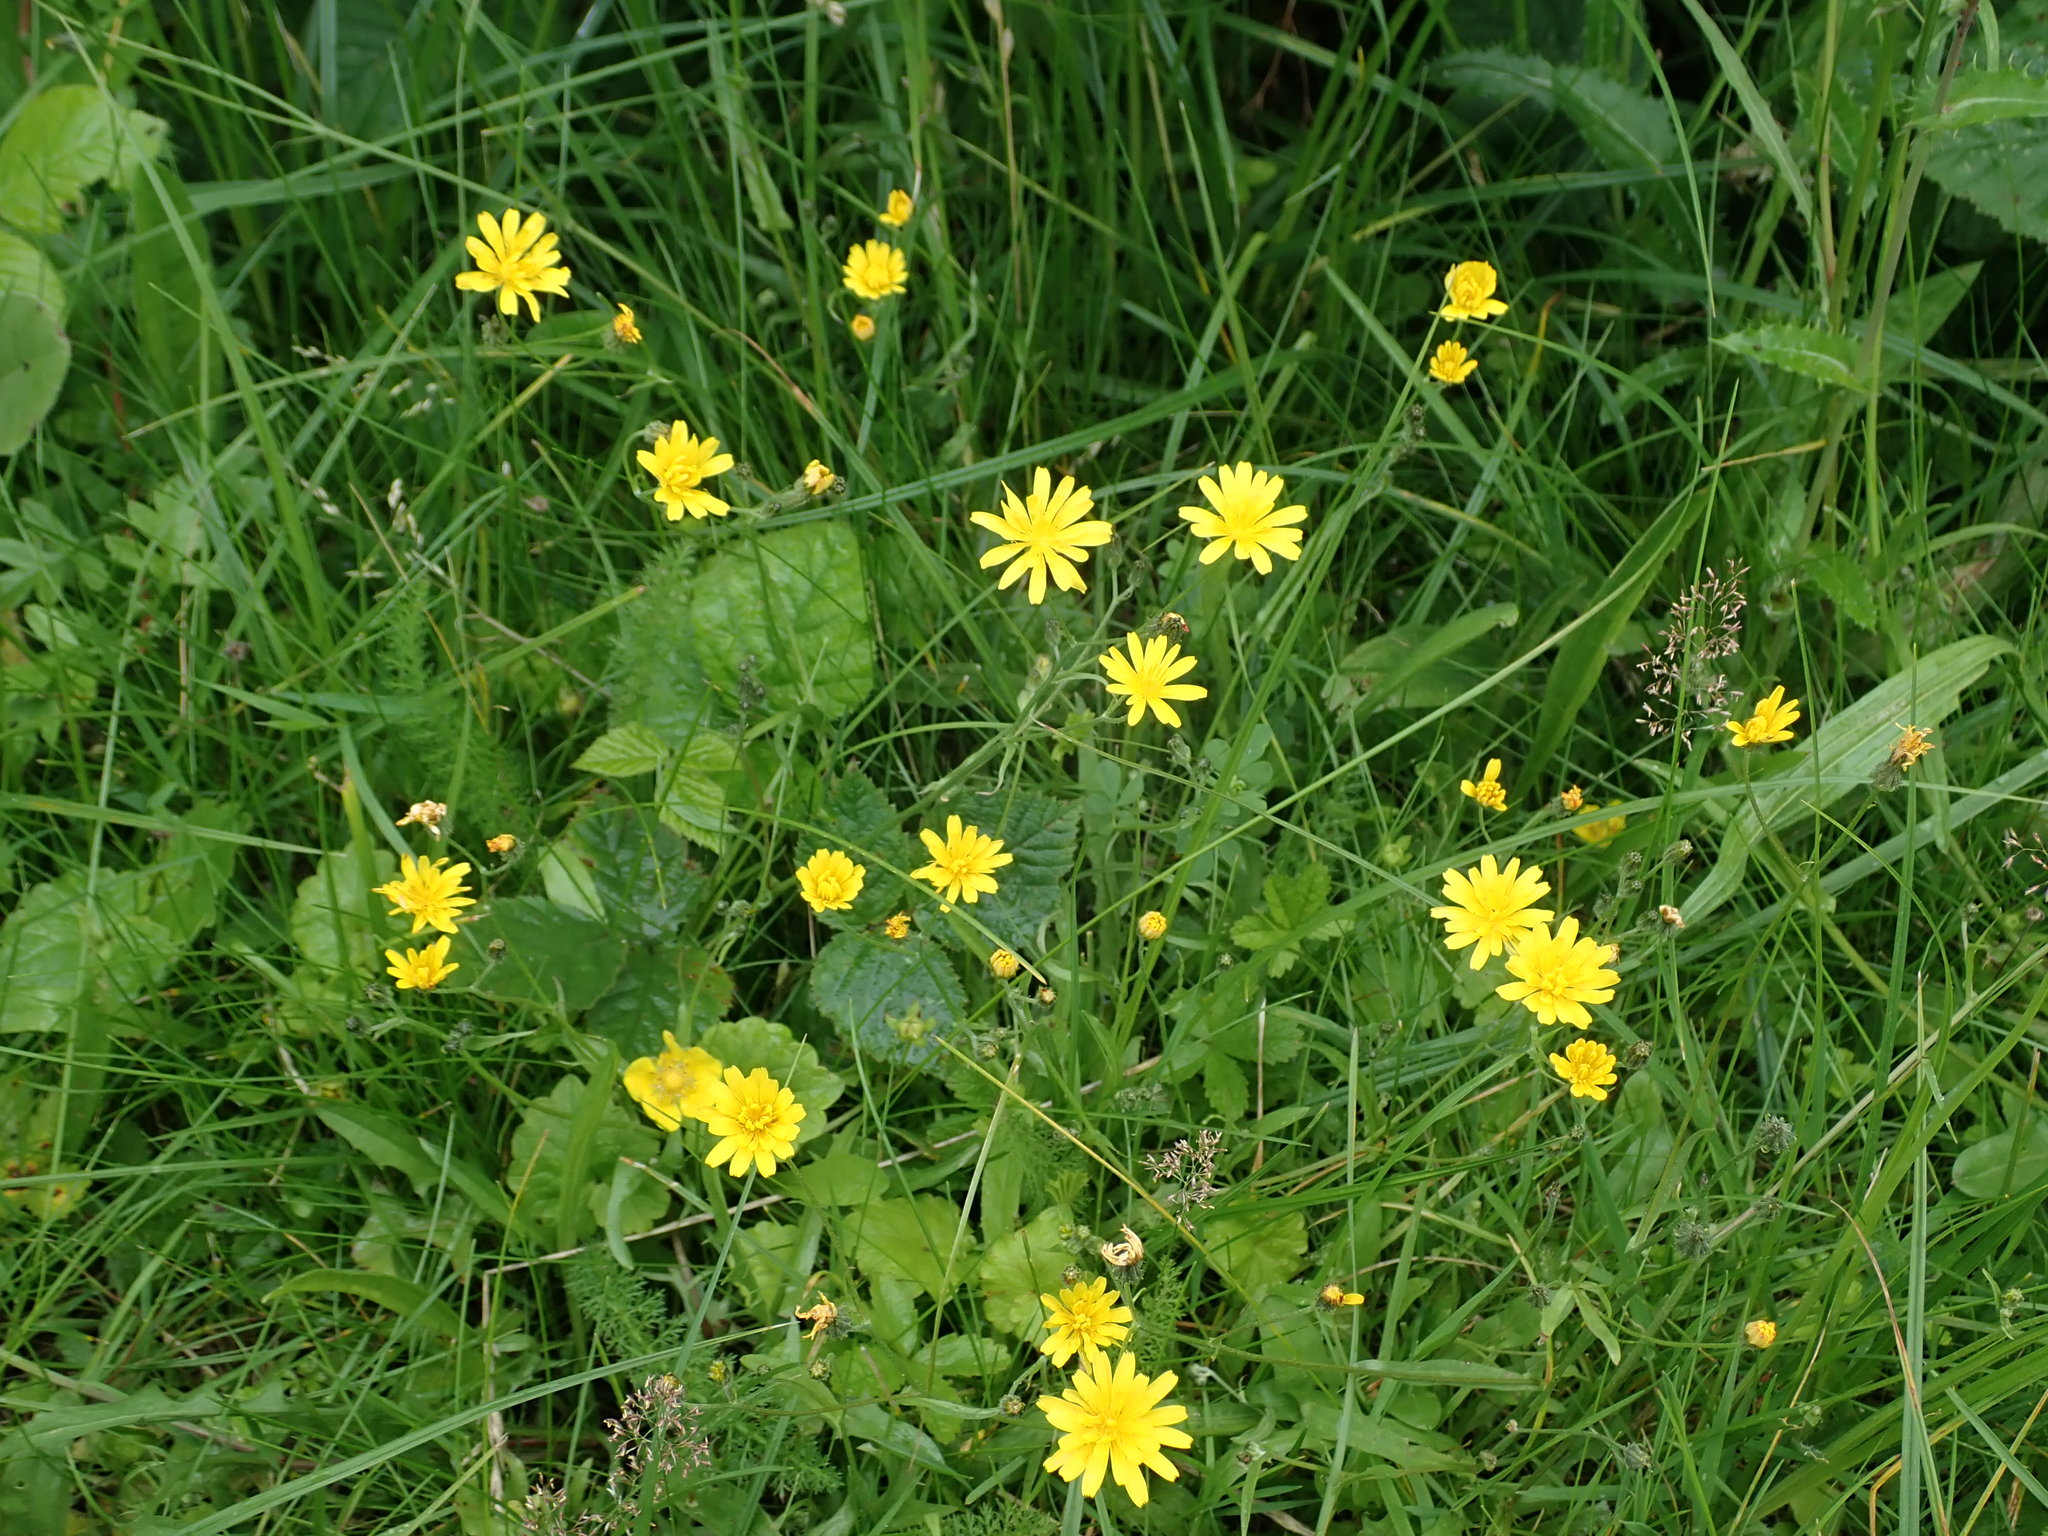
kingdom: Plantae
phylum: Tracheophyta
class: Magnoliopsida
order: Asterales
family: Asteraceae
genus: Crepis
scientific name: Crepis capillaris
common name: Smooth hawksbeard
